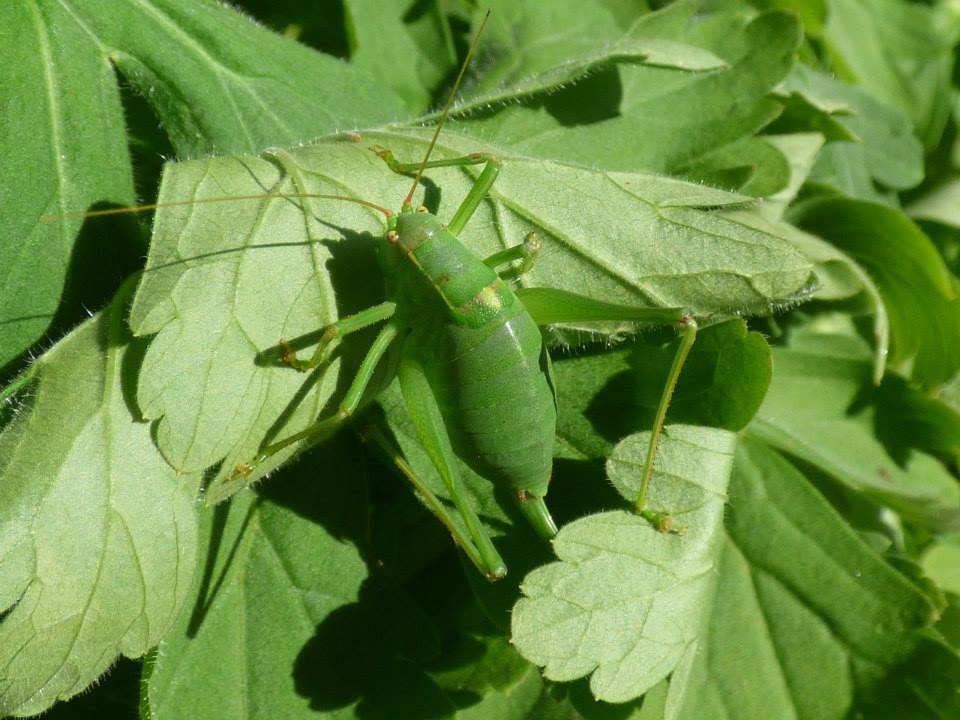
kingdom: Animalia
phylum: Arthropoda
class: Insecta
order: Orthoptera
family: Tettigoniidae
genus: Barbitistes
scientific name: Barbitistes yersini
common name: Balkan saw bush-cricket
